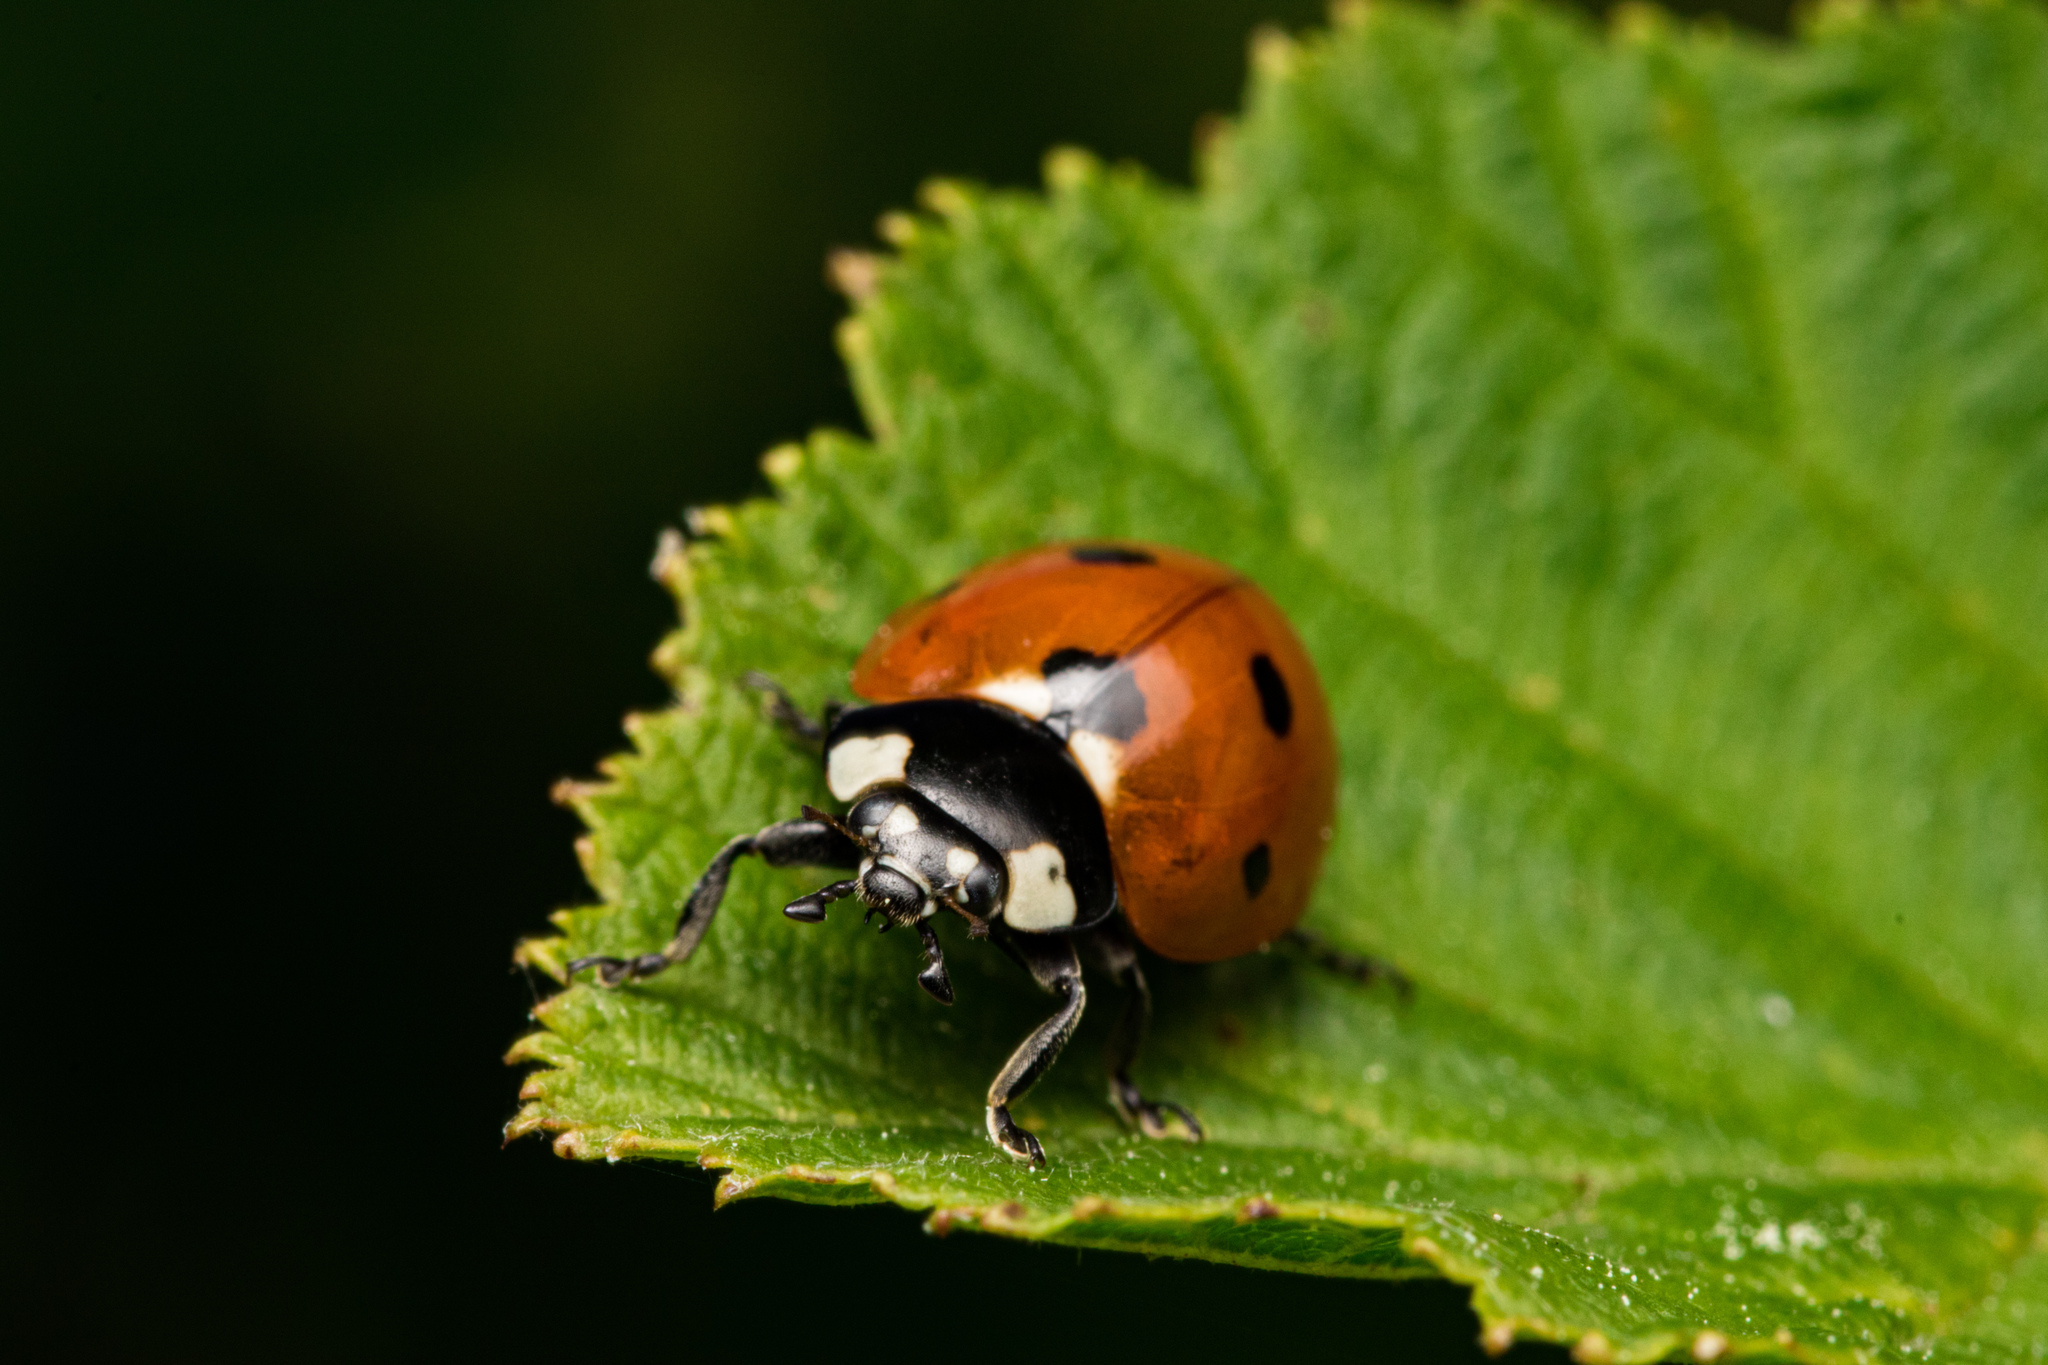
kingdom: Animalia
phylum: Arthropoda
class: Insecta
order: Coleoptera
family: Coccinellidae
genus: Coccinella
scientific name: Coccinella septempunctata
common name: Sevenspotted lady beetle
